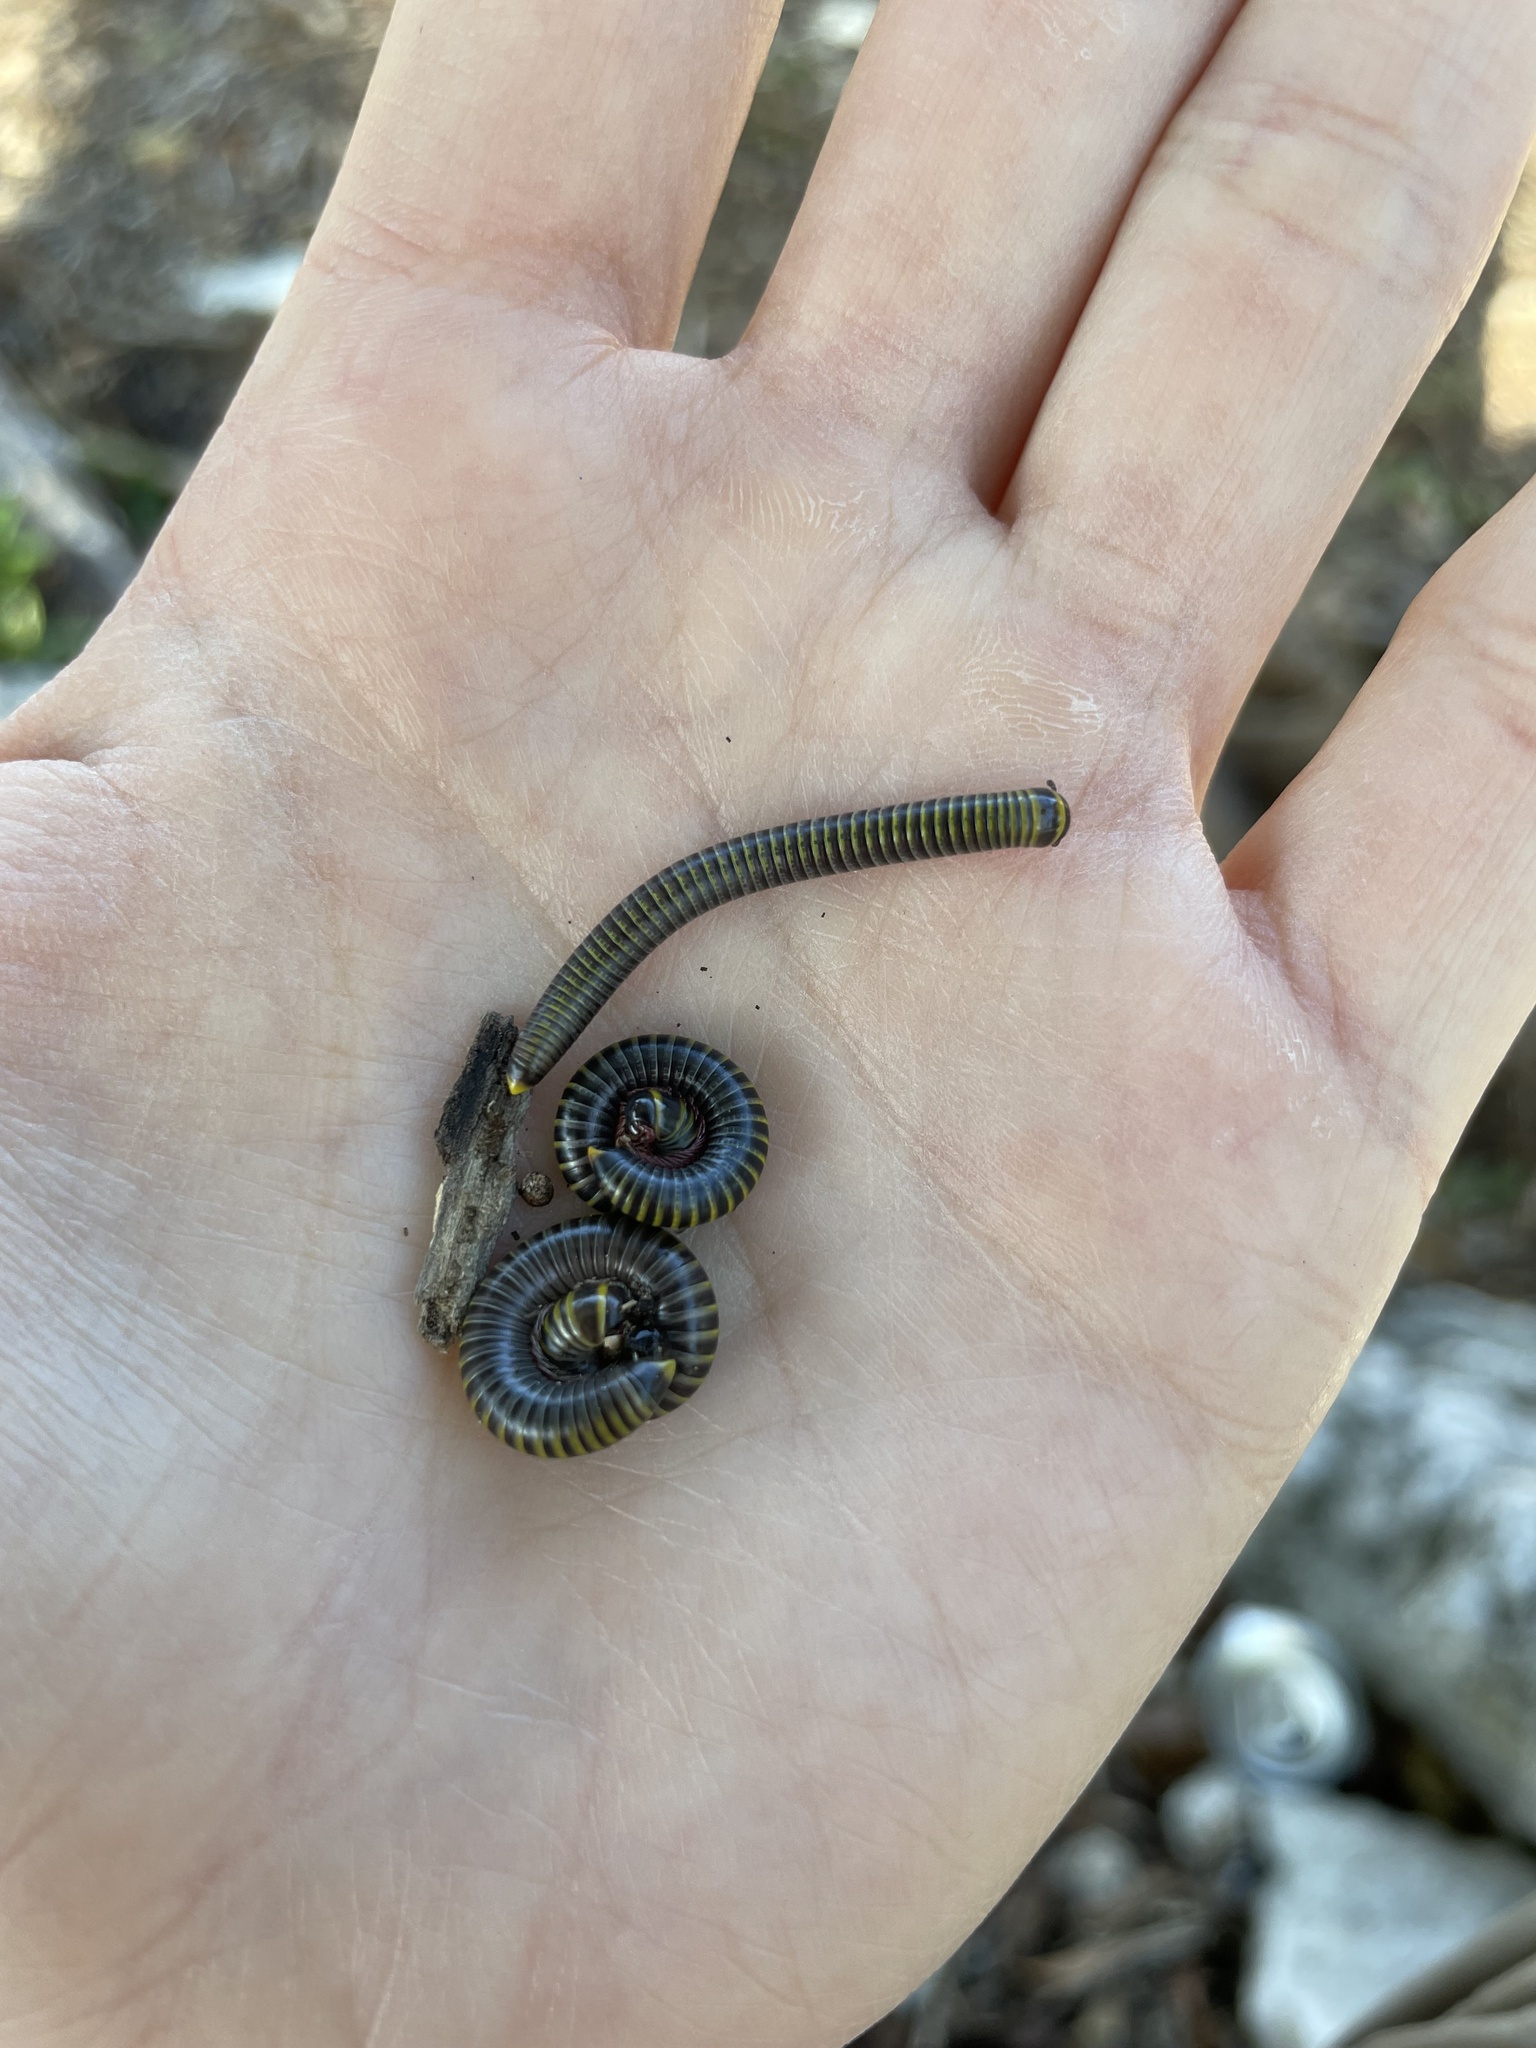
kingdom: Animalia
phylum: Arthropoda
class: Diplopoda
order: Spirobolida
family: Rhinocricidae
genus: Anadenobolus
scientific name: Anadenobolus monilicornis
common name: Caribbean millipede
